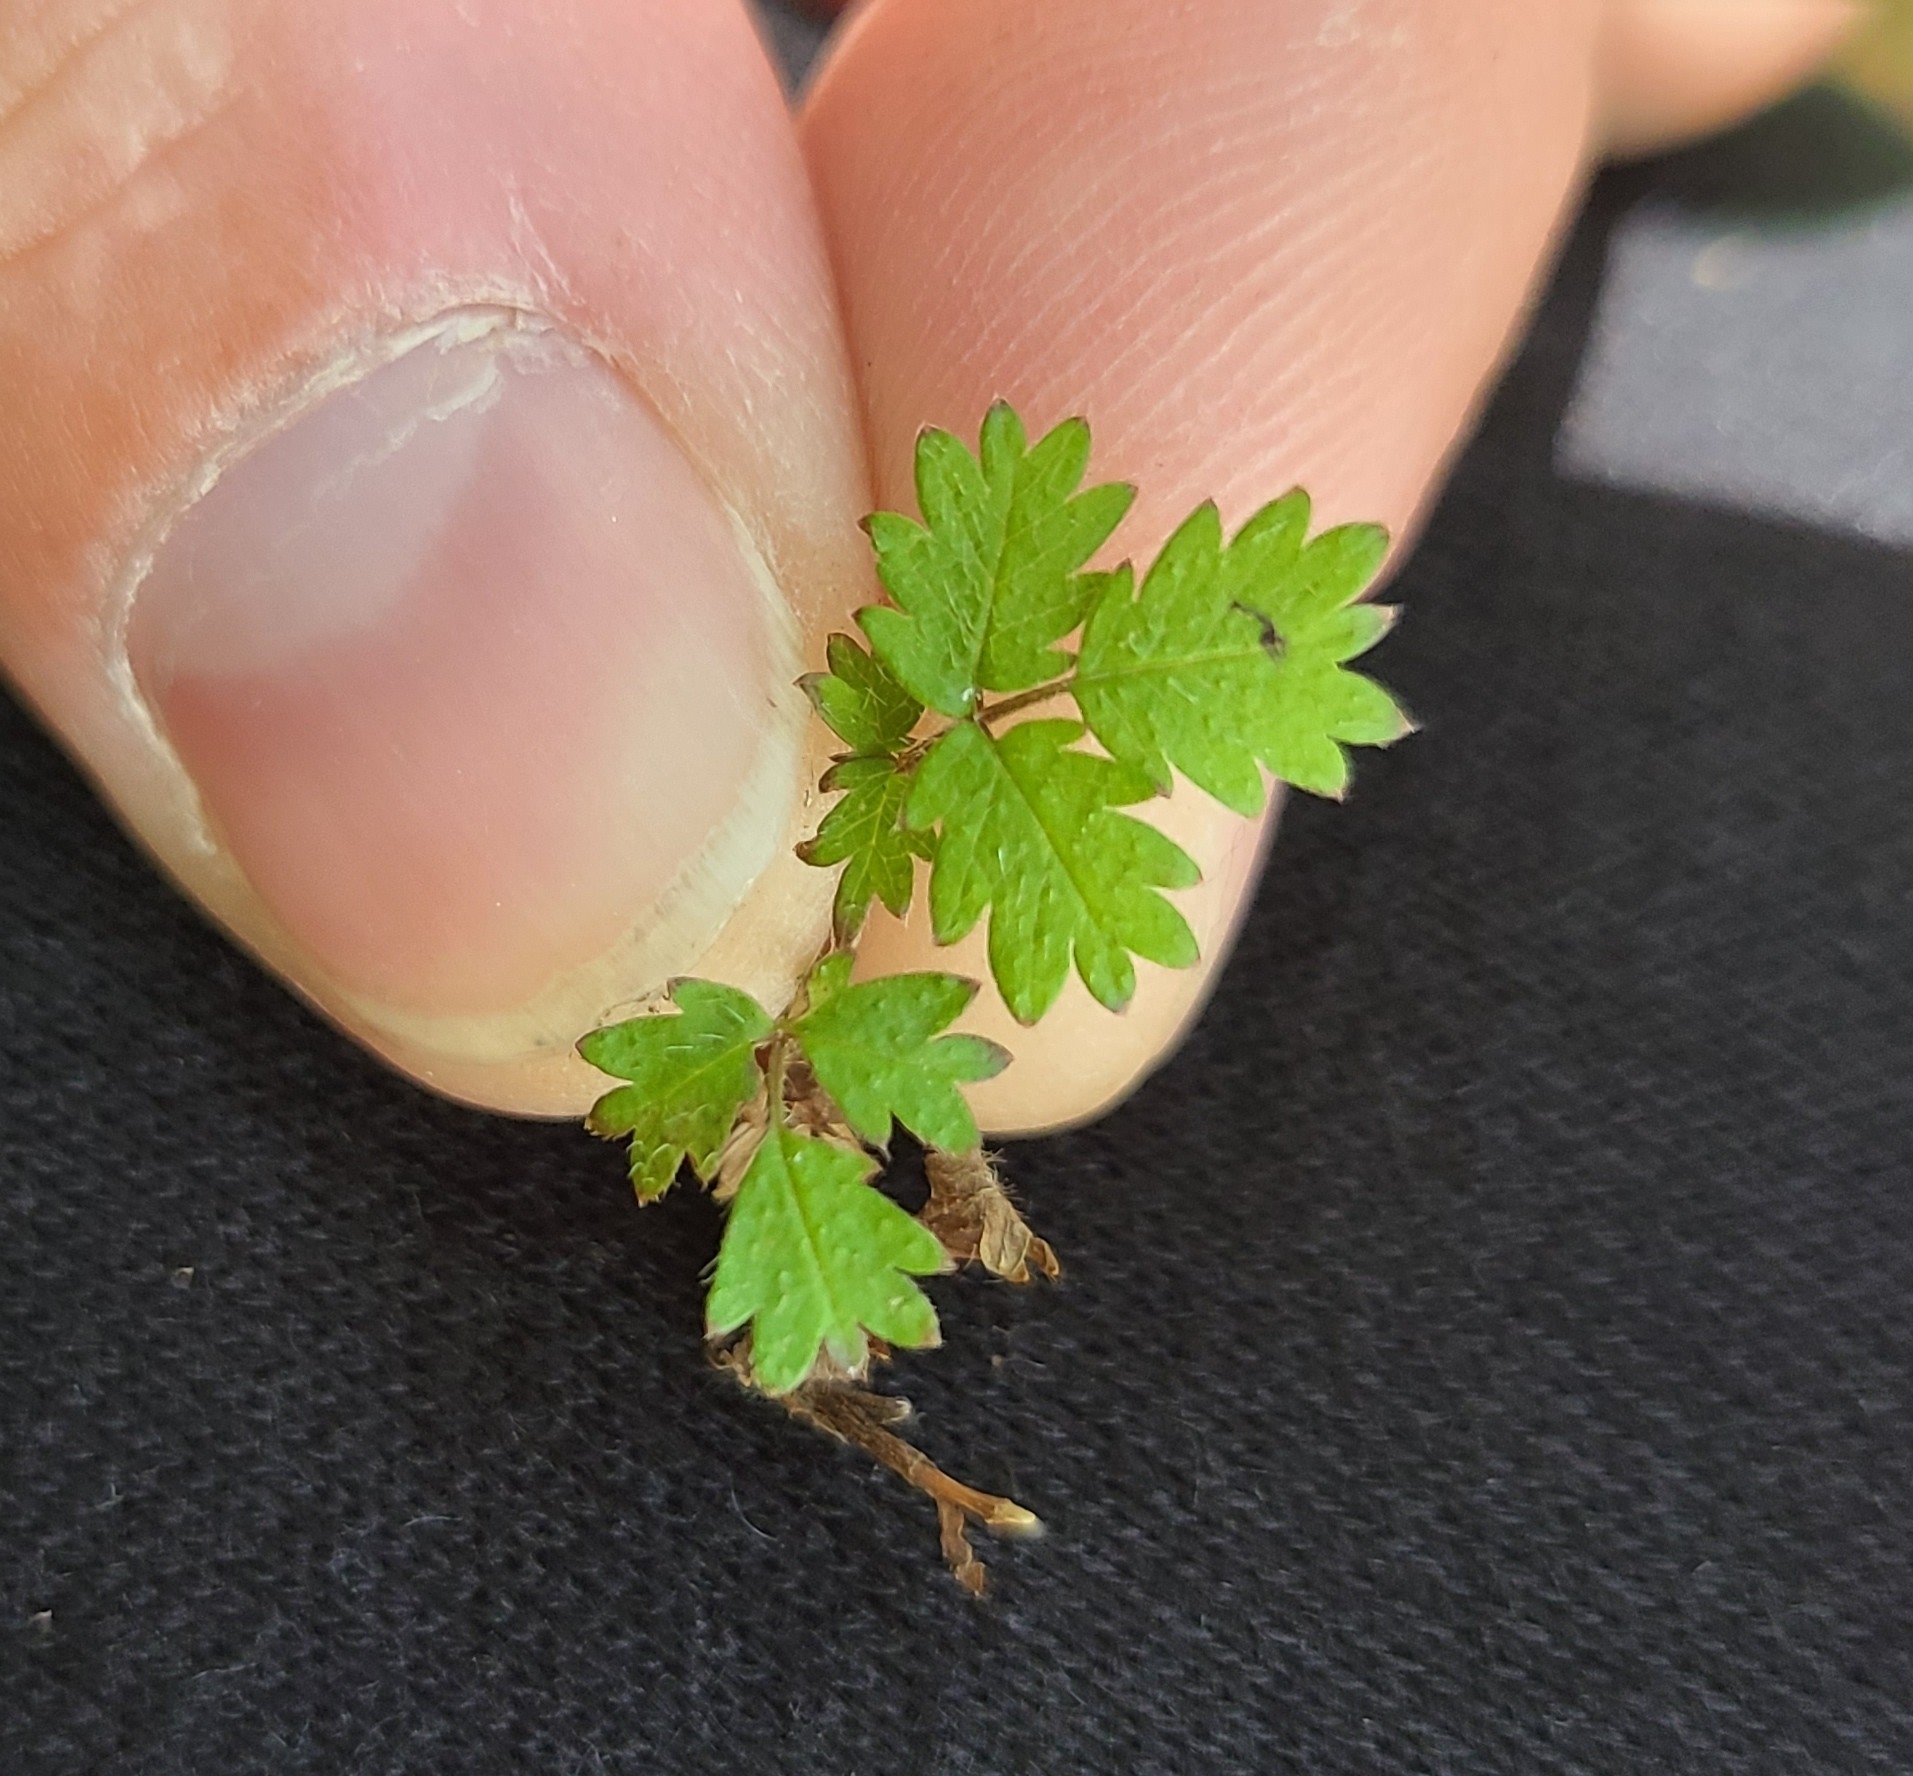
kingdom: Plantae
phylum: Tracheophyta
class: Magnoliopsida
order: Rosales
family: Rosaceae
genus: Acaena
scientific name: Acaena juvenca
